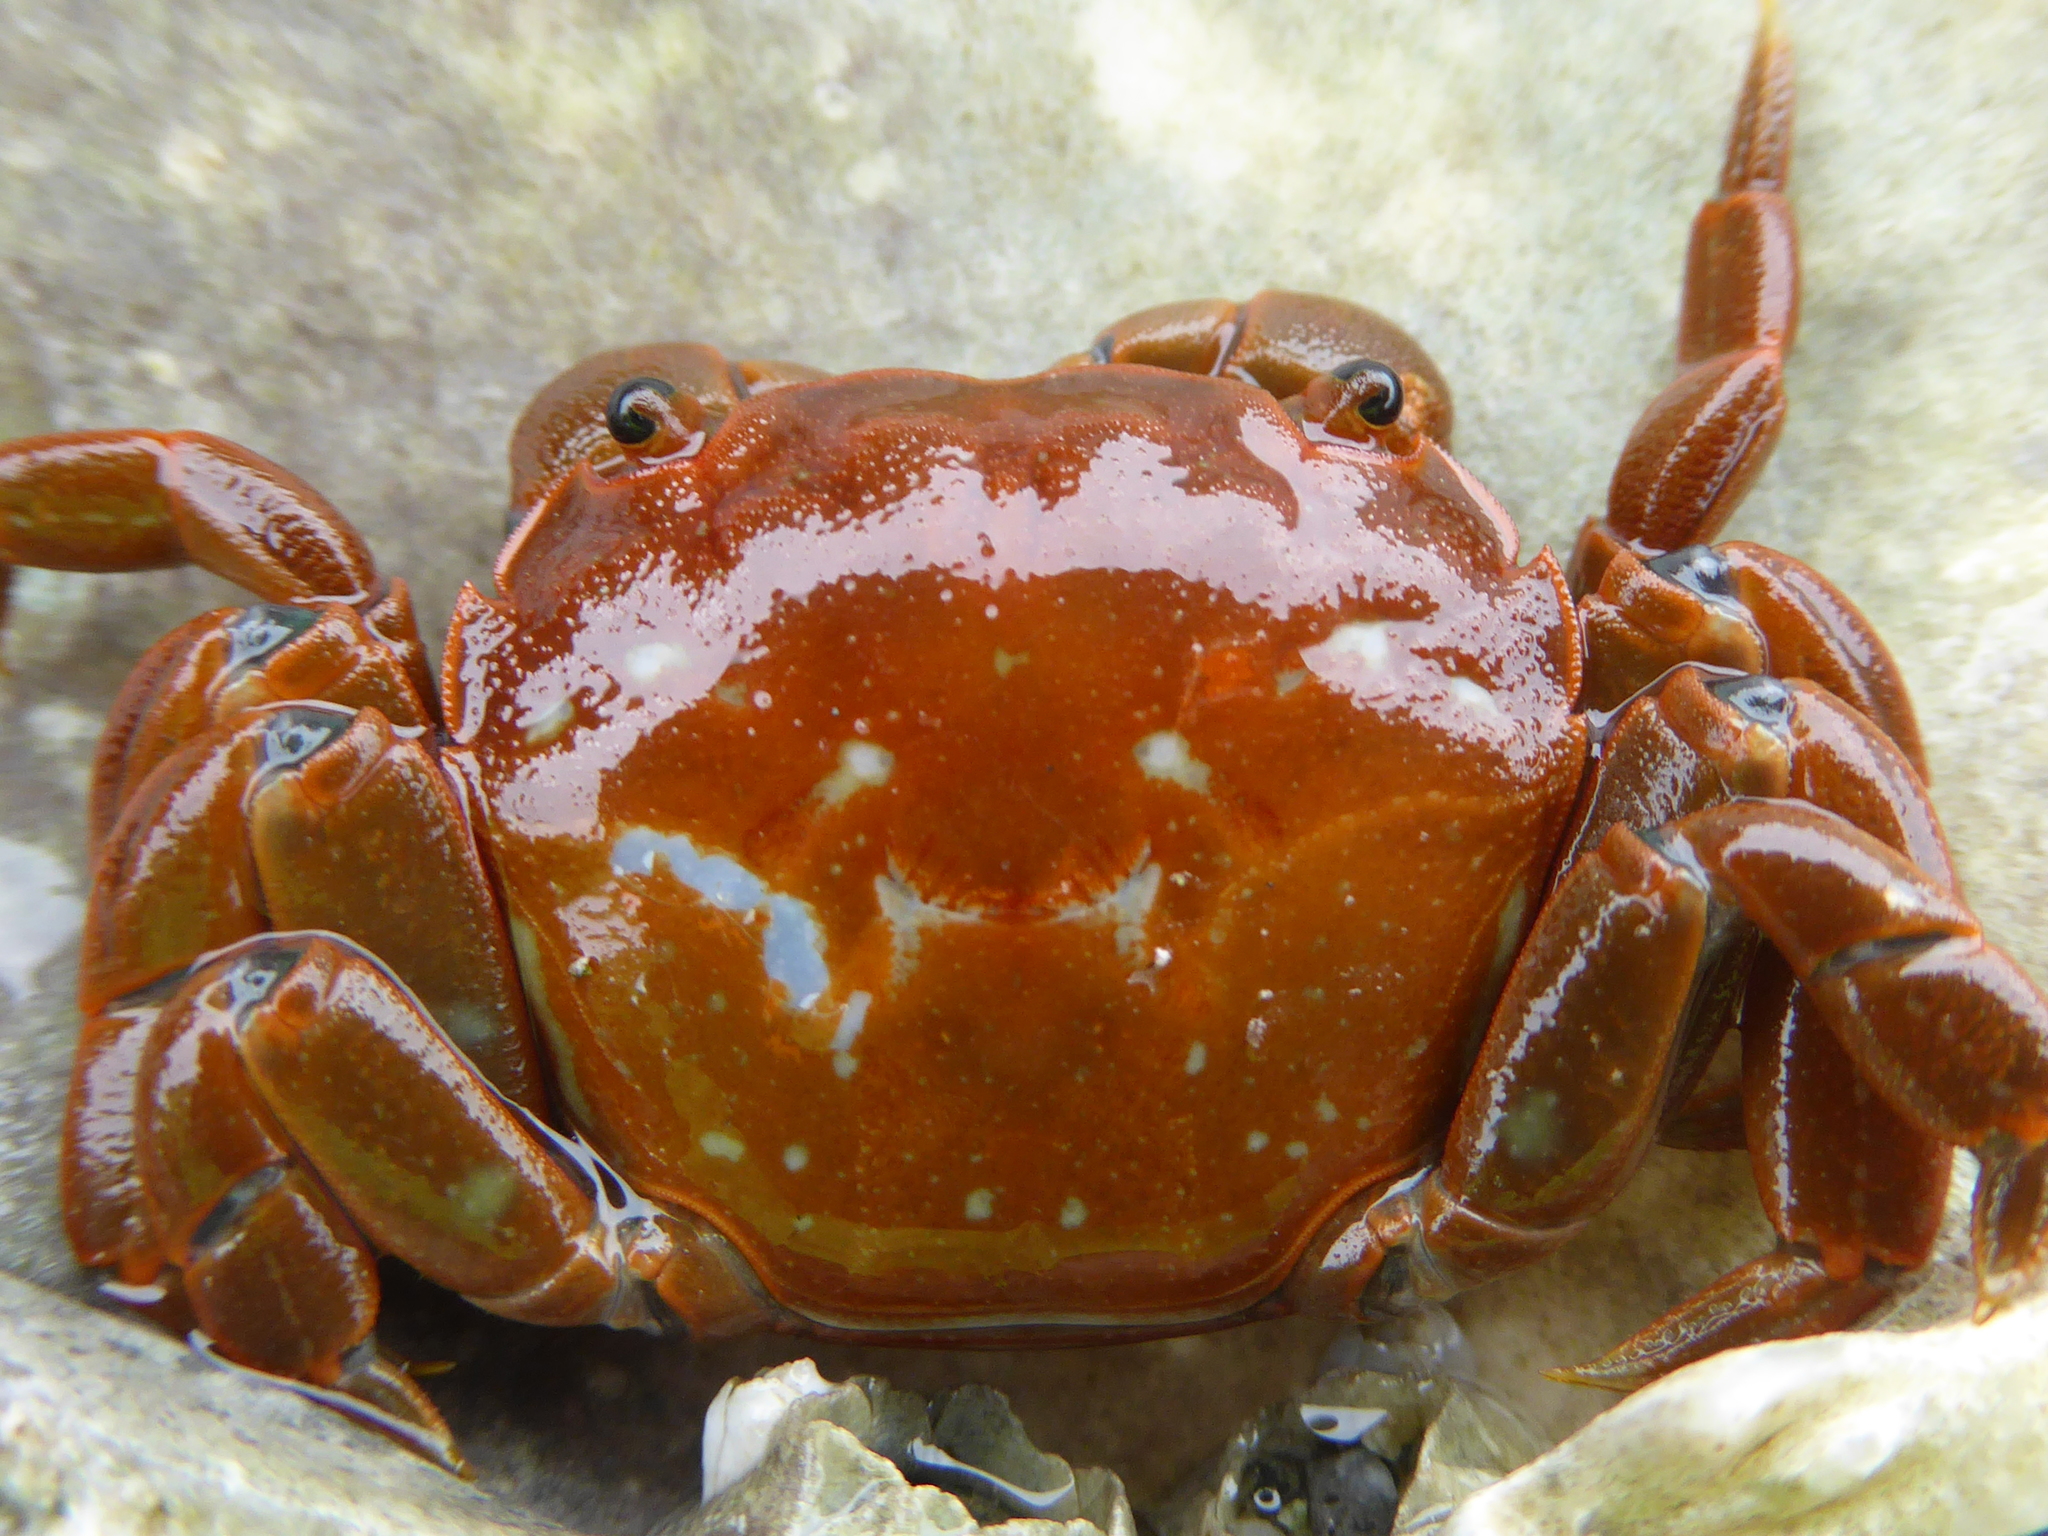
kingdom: Animalia
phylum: Arthropoda
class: Malacostraca
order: Decapoda
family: Varunidae
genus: Hemigrapsus
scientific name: Hemigrapsus nudus
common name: Purple shore crab
